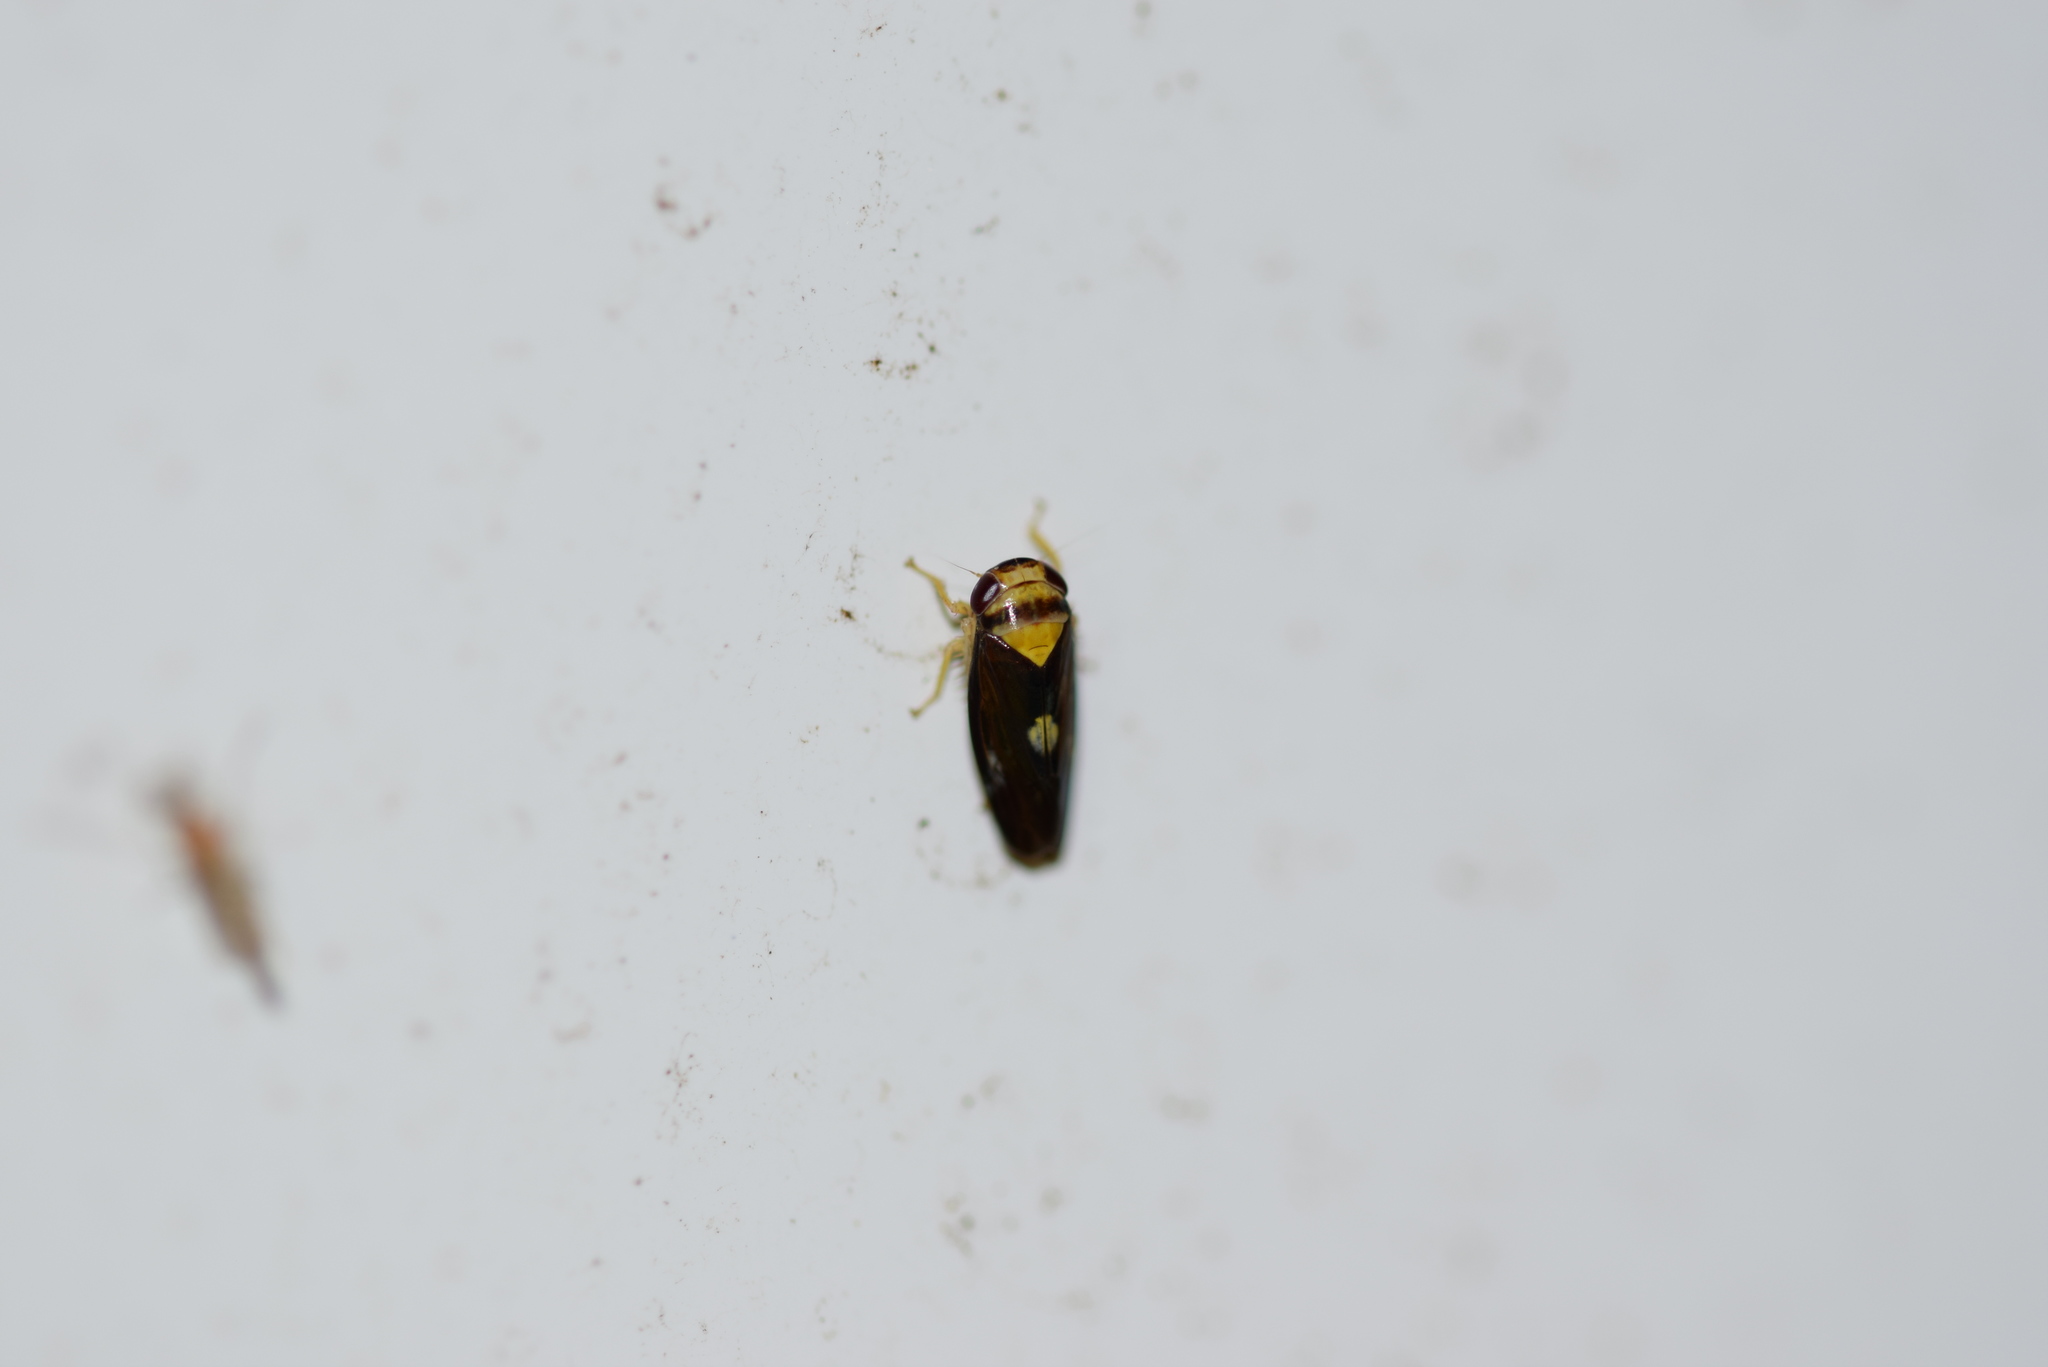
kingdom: Animalia
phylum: Arthropoda
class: Insecta
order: Hemiptera
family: Cicadellidae
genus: Eutettix
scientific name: Eutettix pictus
